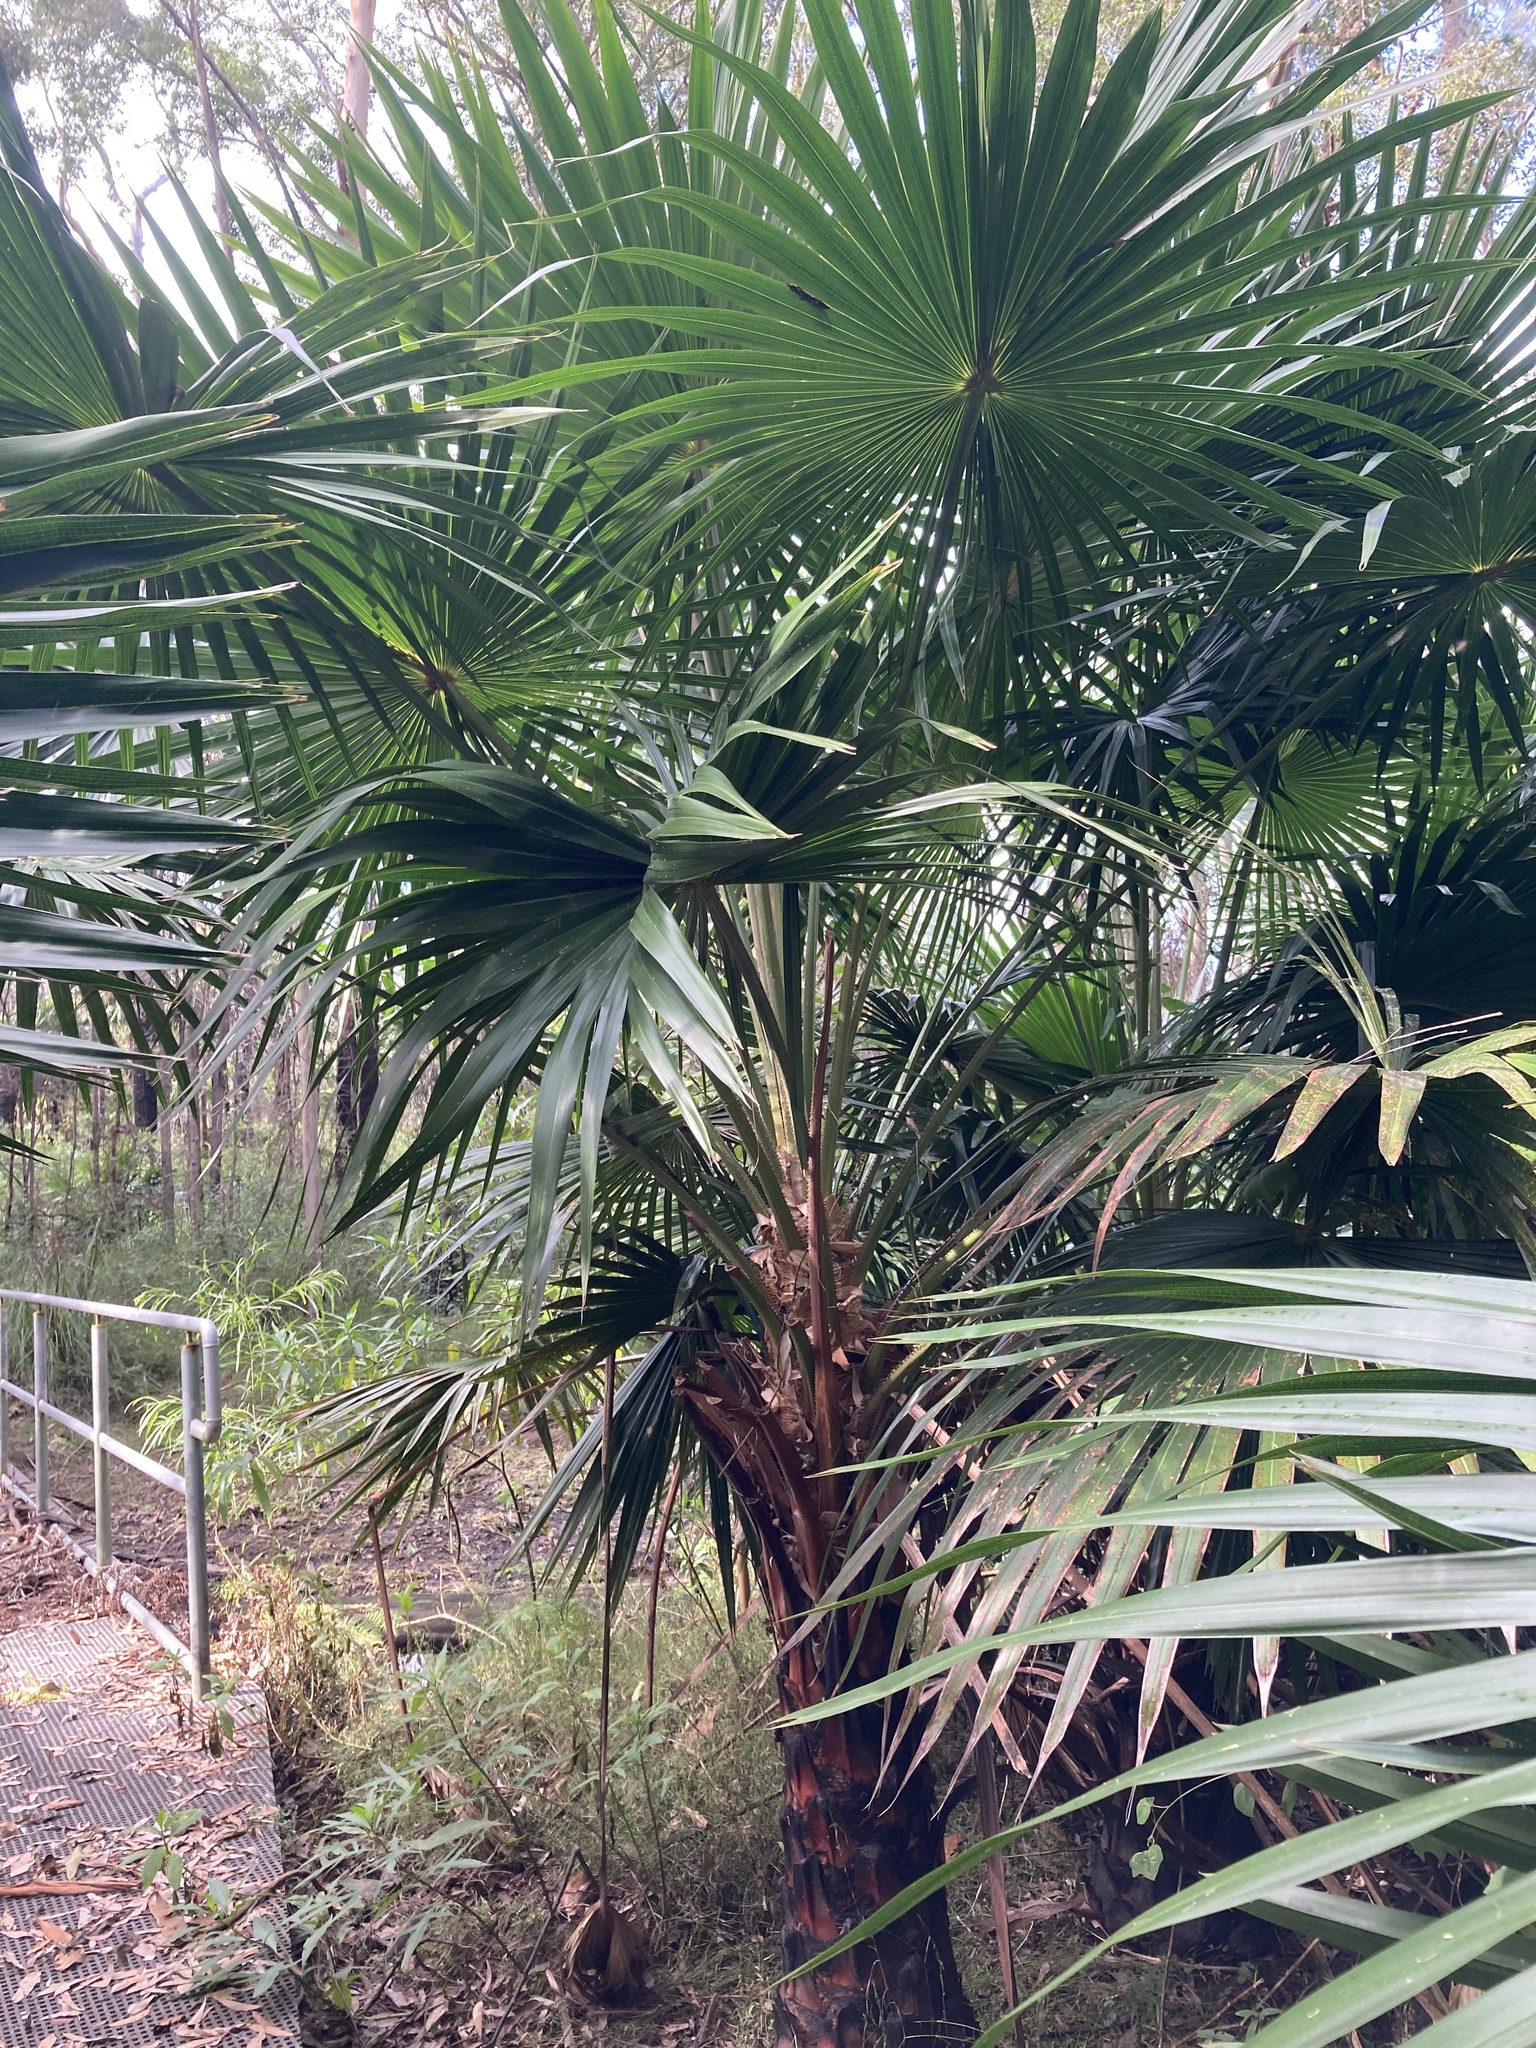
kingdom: Plantae
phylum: Tracheophyta
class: Liliopsida
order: Arecales
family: Arecaceae
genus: Livistona
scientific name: Livistona australis
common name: Cabbage fan palm
